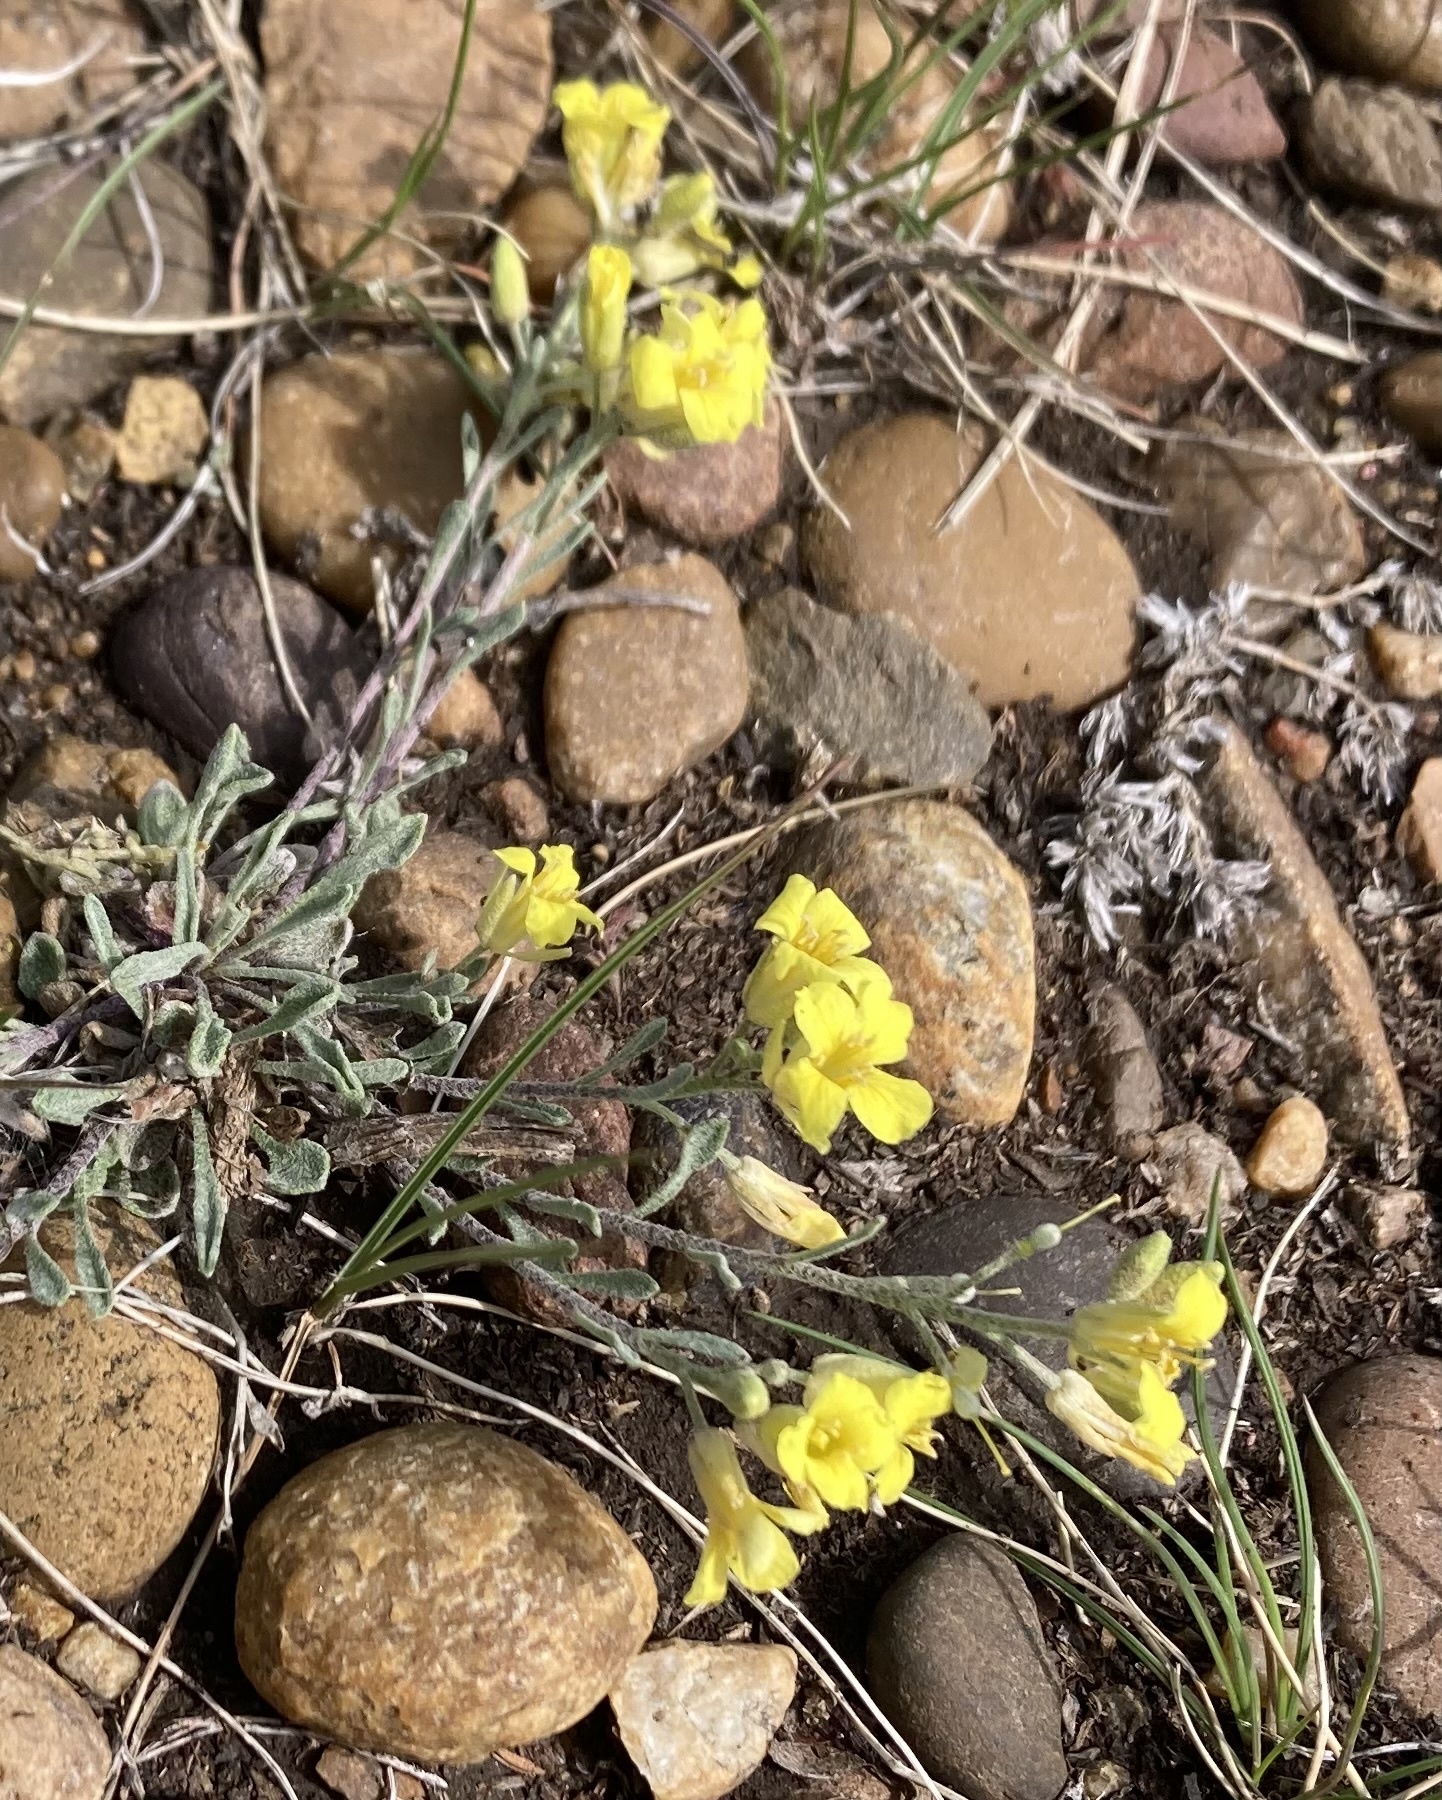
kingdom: Plantae
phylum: Tracheophyta
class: Magnoliopsida
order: Brassicales
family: Brassicaceae
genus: Physaria
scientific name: Physaria arenosa
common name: Great plains bladderpod
